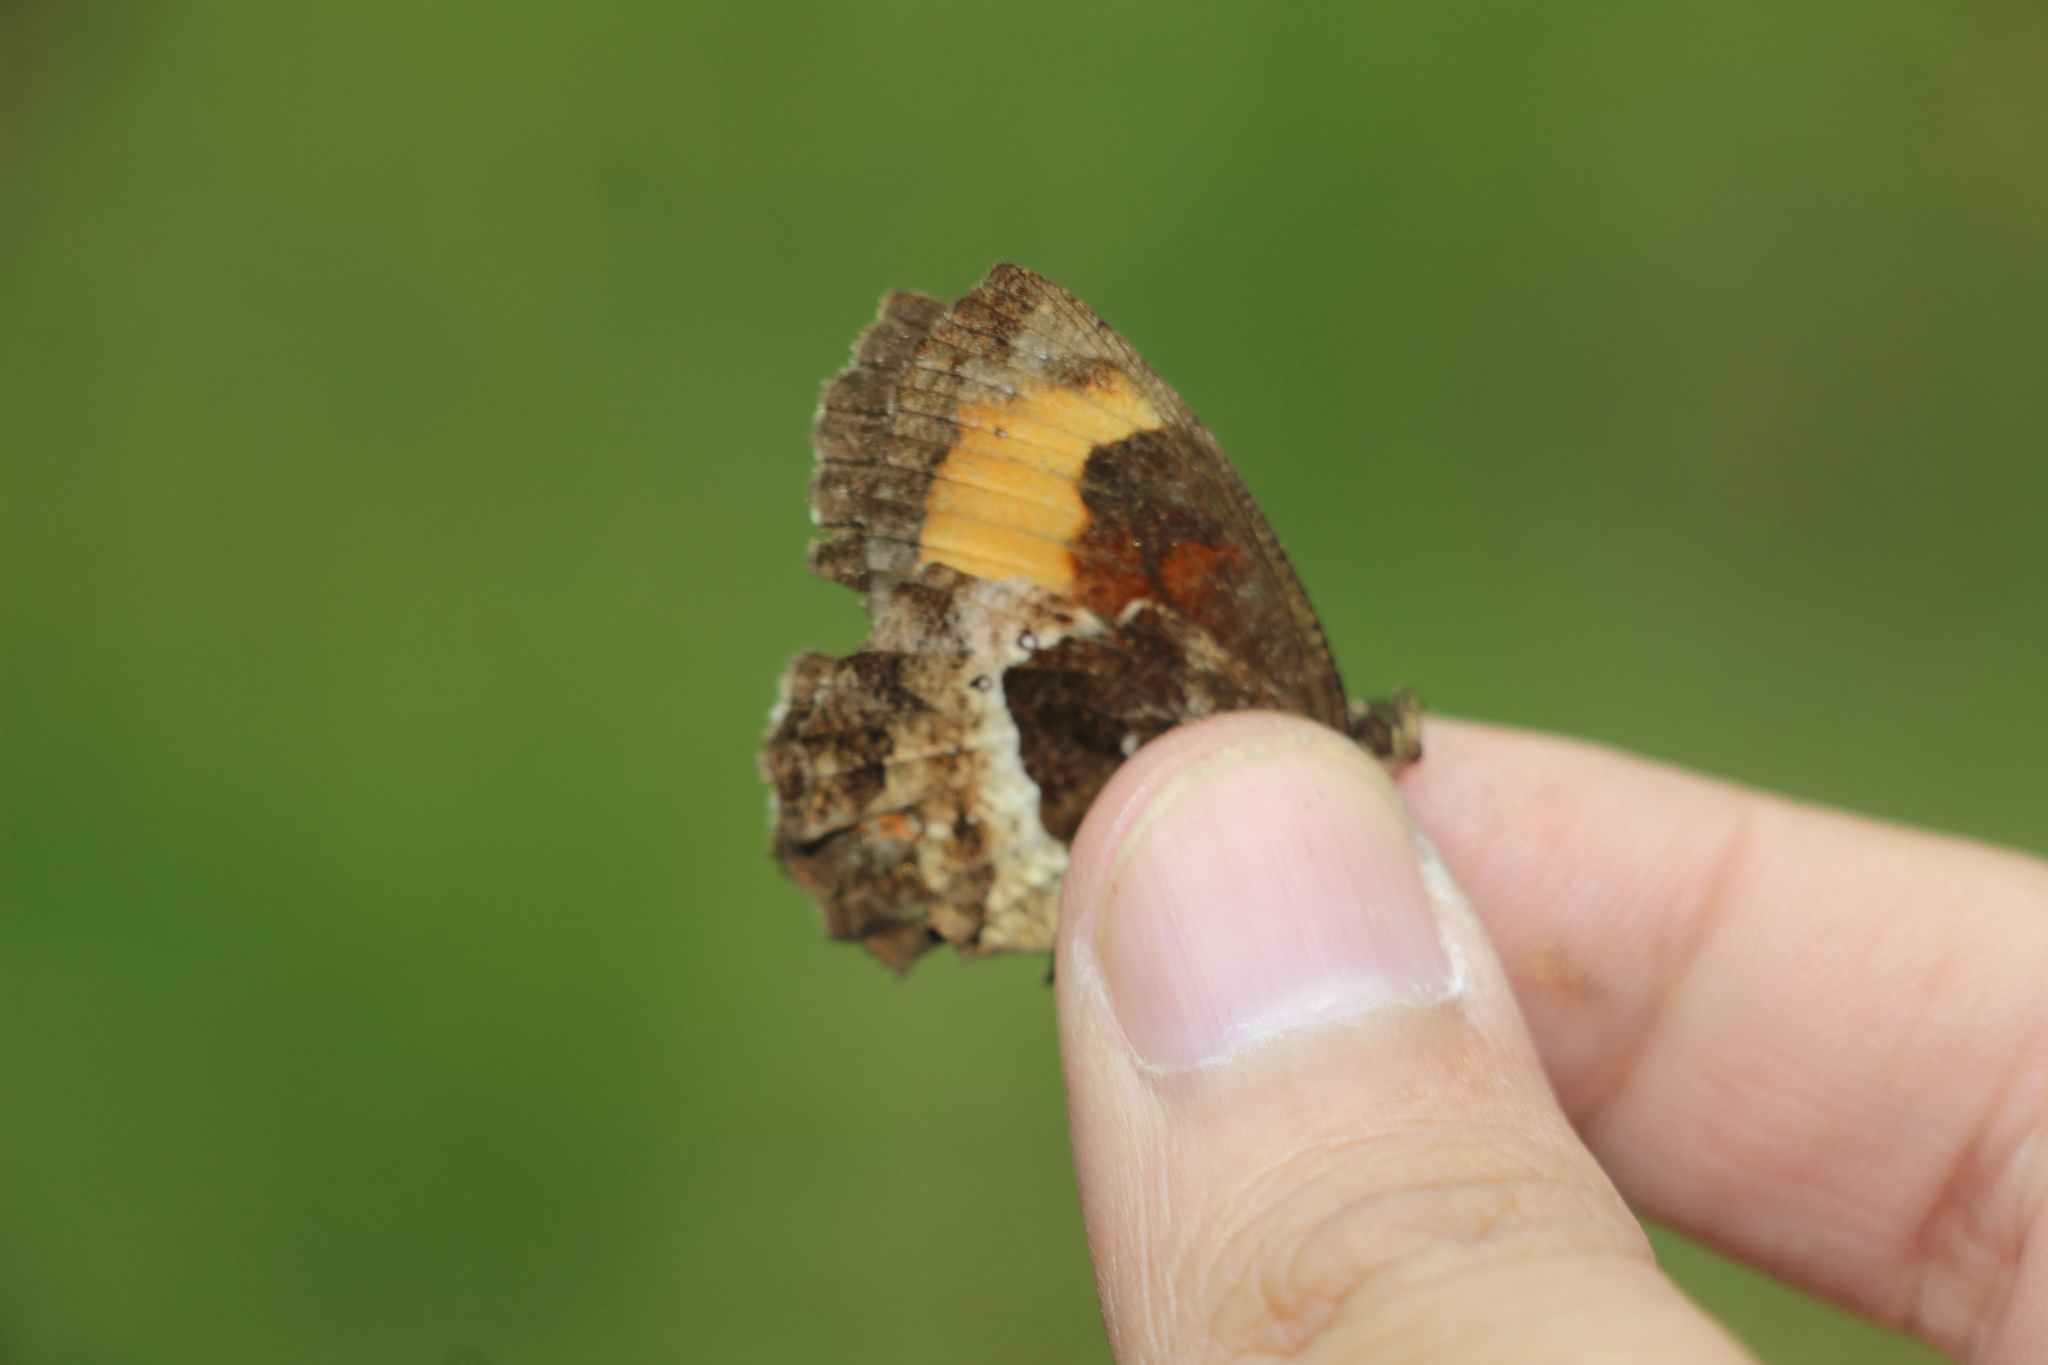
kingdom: Animalia
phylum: Arthropoda
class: Insecta
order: Lepidoptera
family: Nymphalidae
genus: Pedaliodes
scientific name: Pedaliodes phaea
